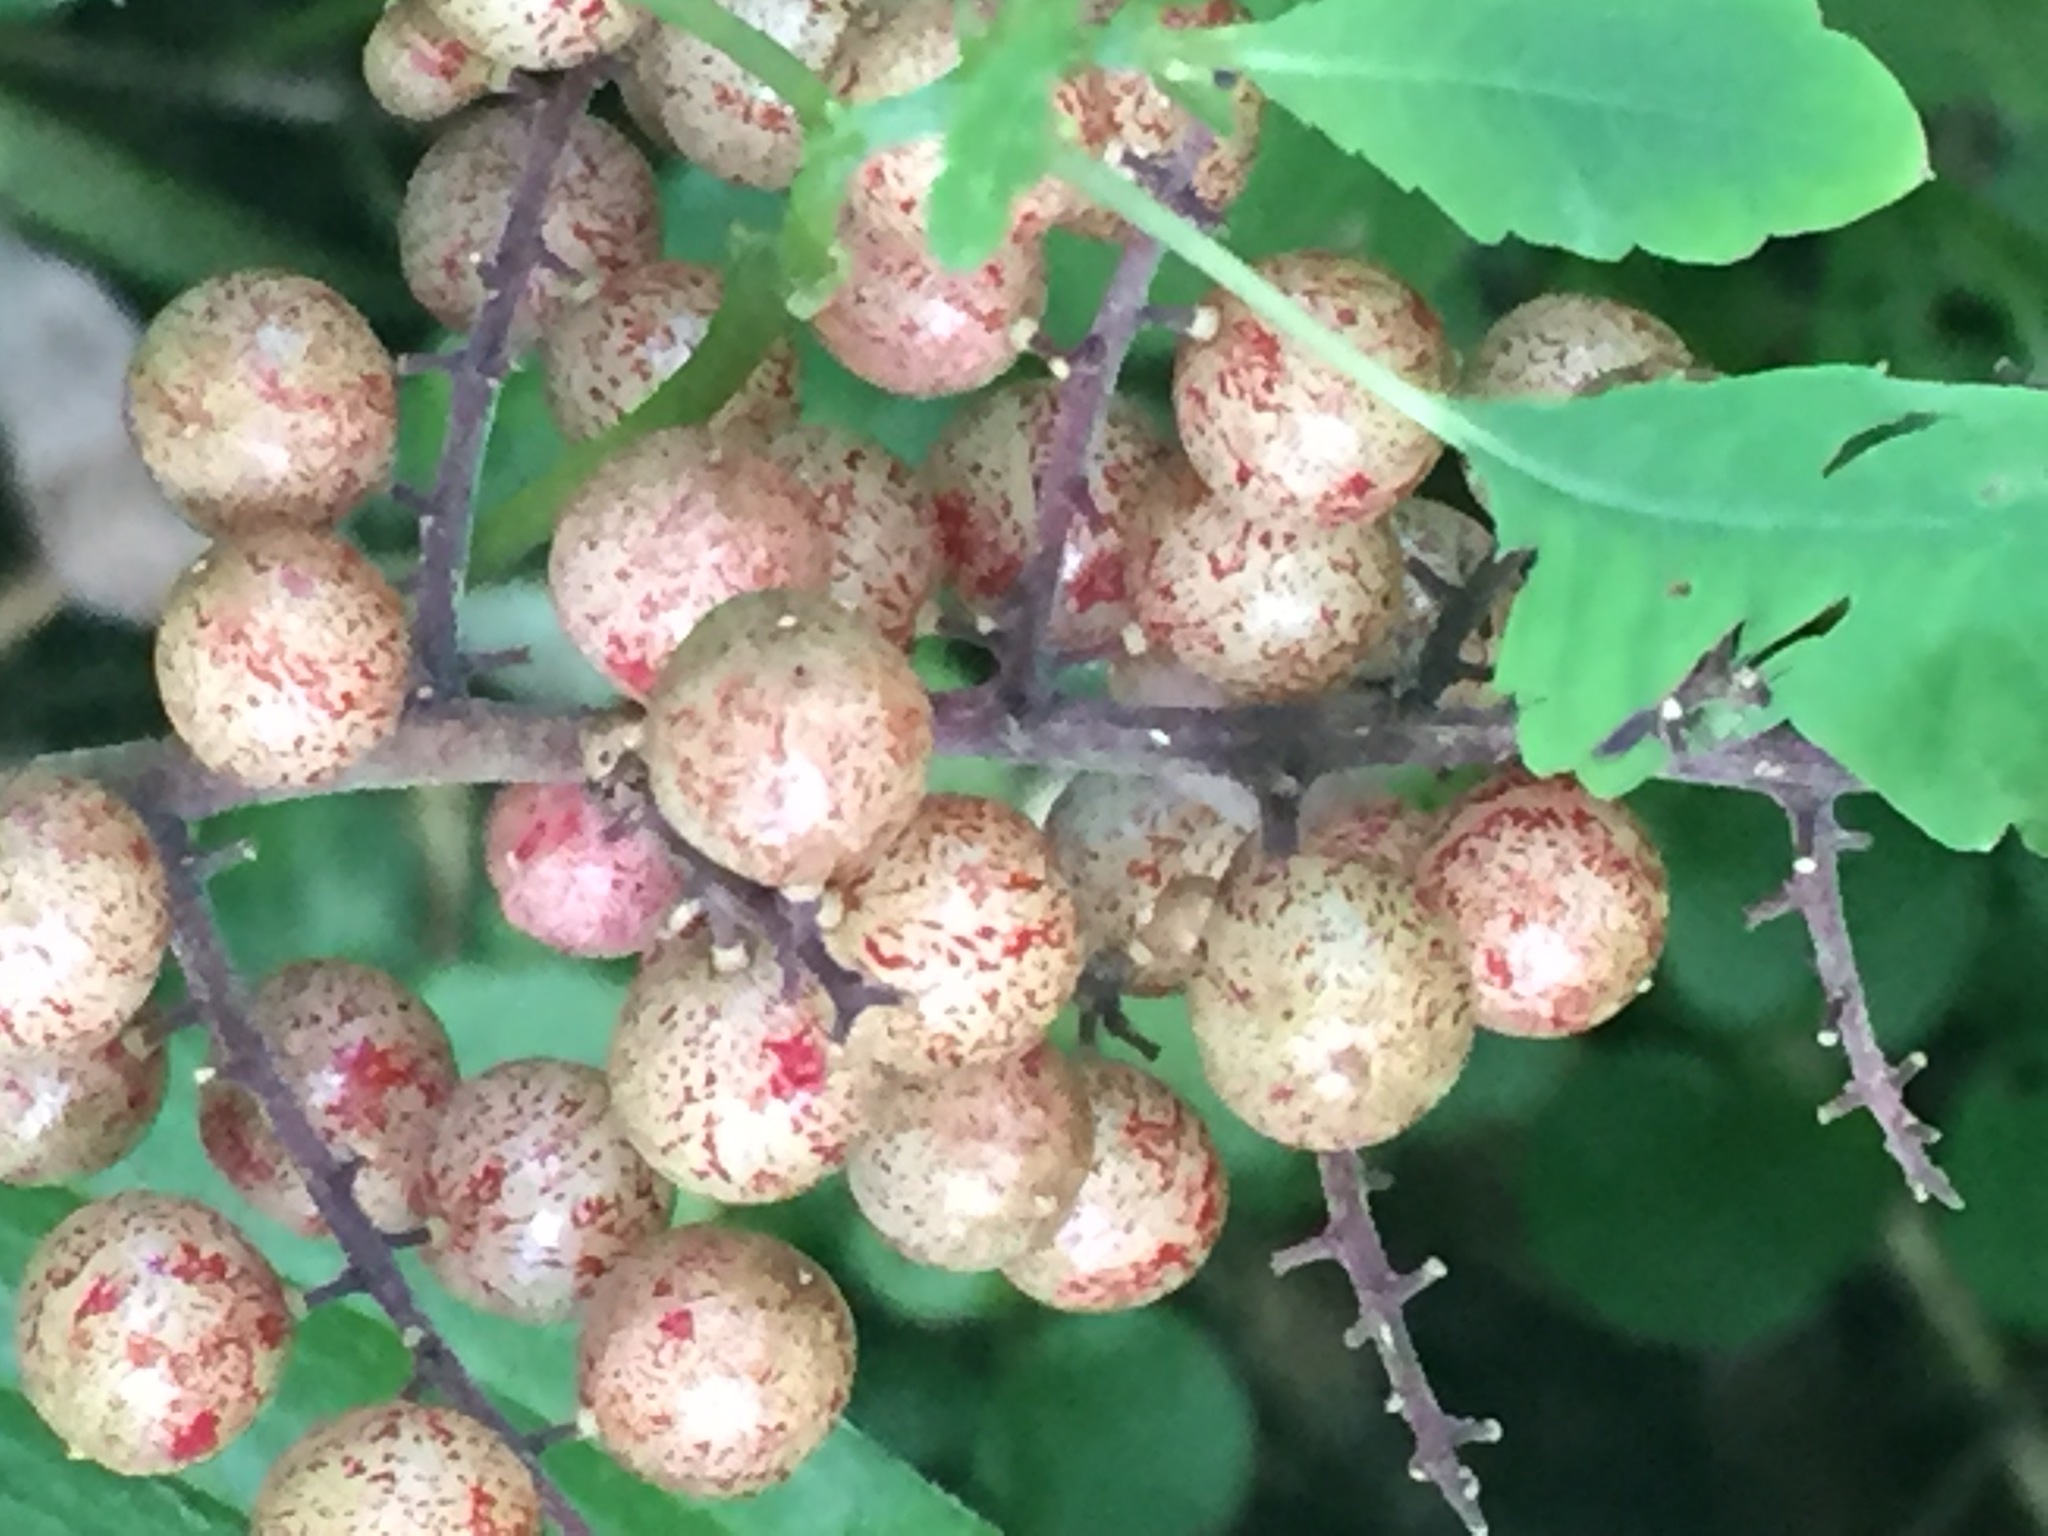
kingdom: Plantae
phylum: Tracheophyta
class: Liliopsida
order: Asparagales
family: Asparagaceae
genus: Maianthemum
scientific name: Maianthemum racemosum
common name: False spikenard
